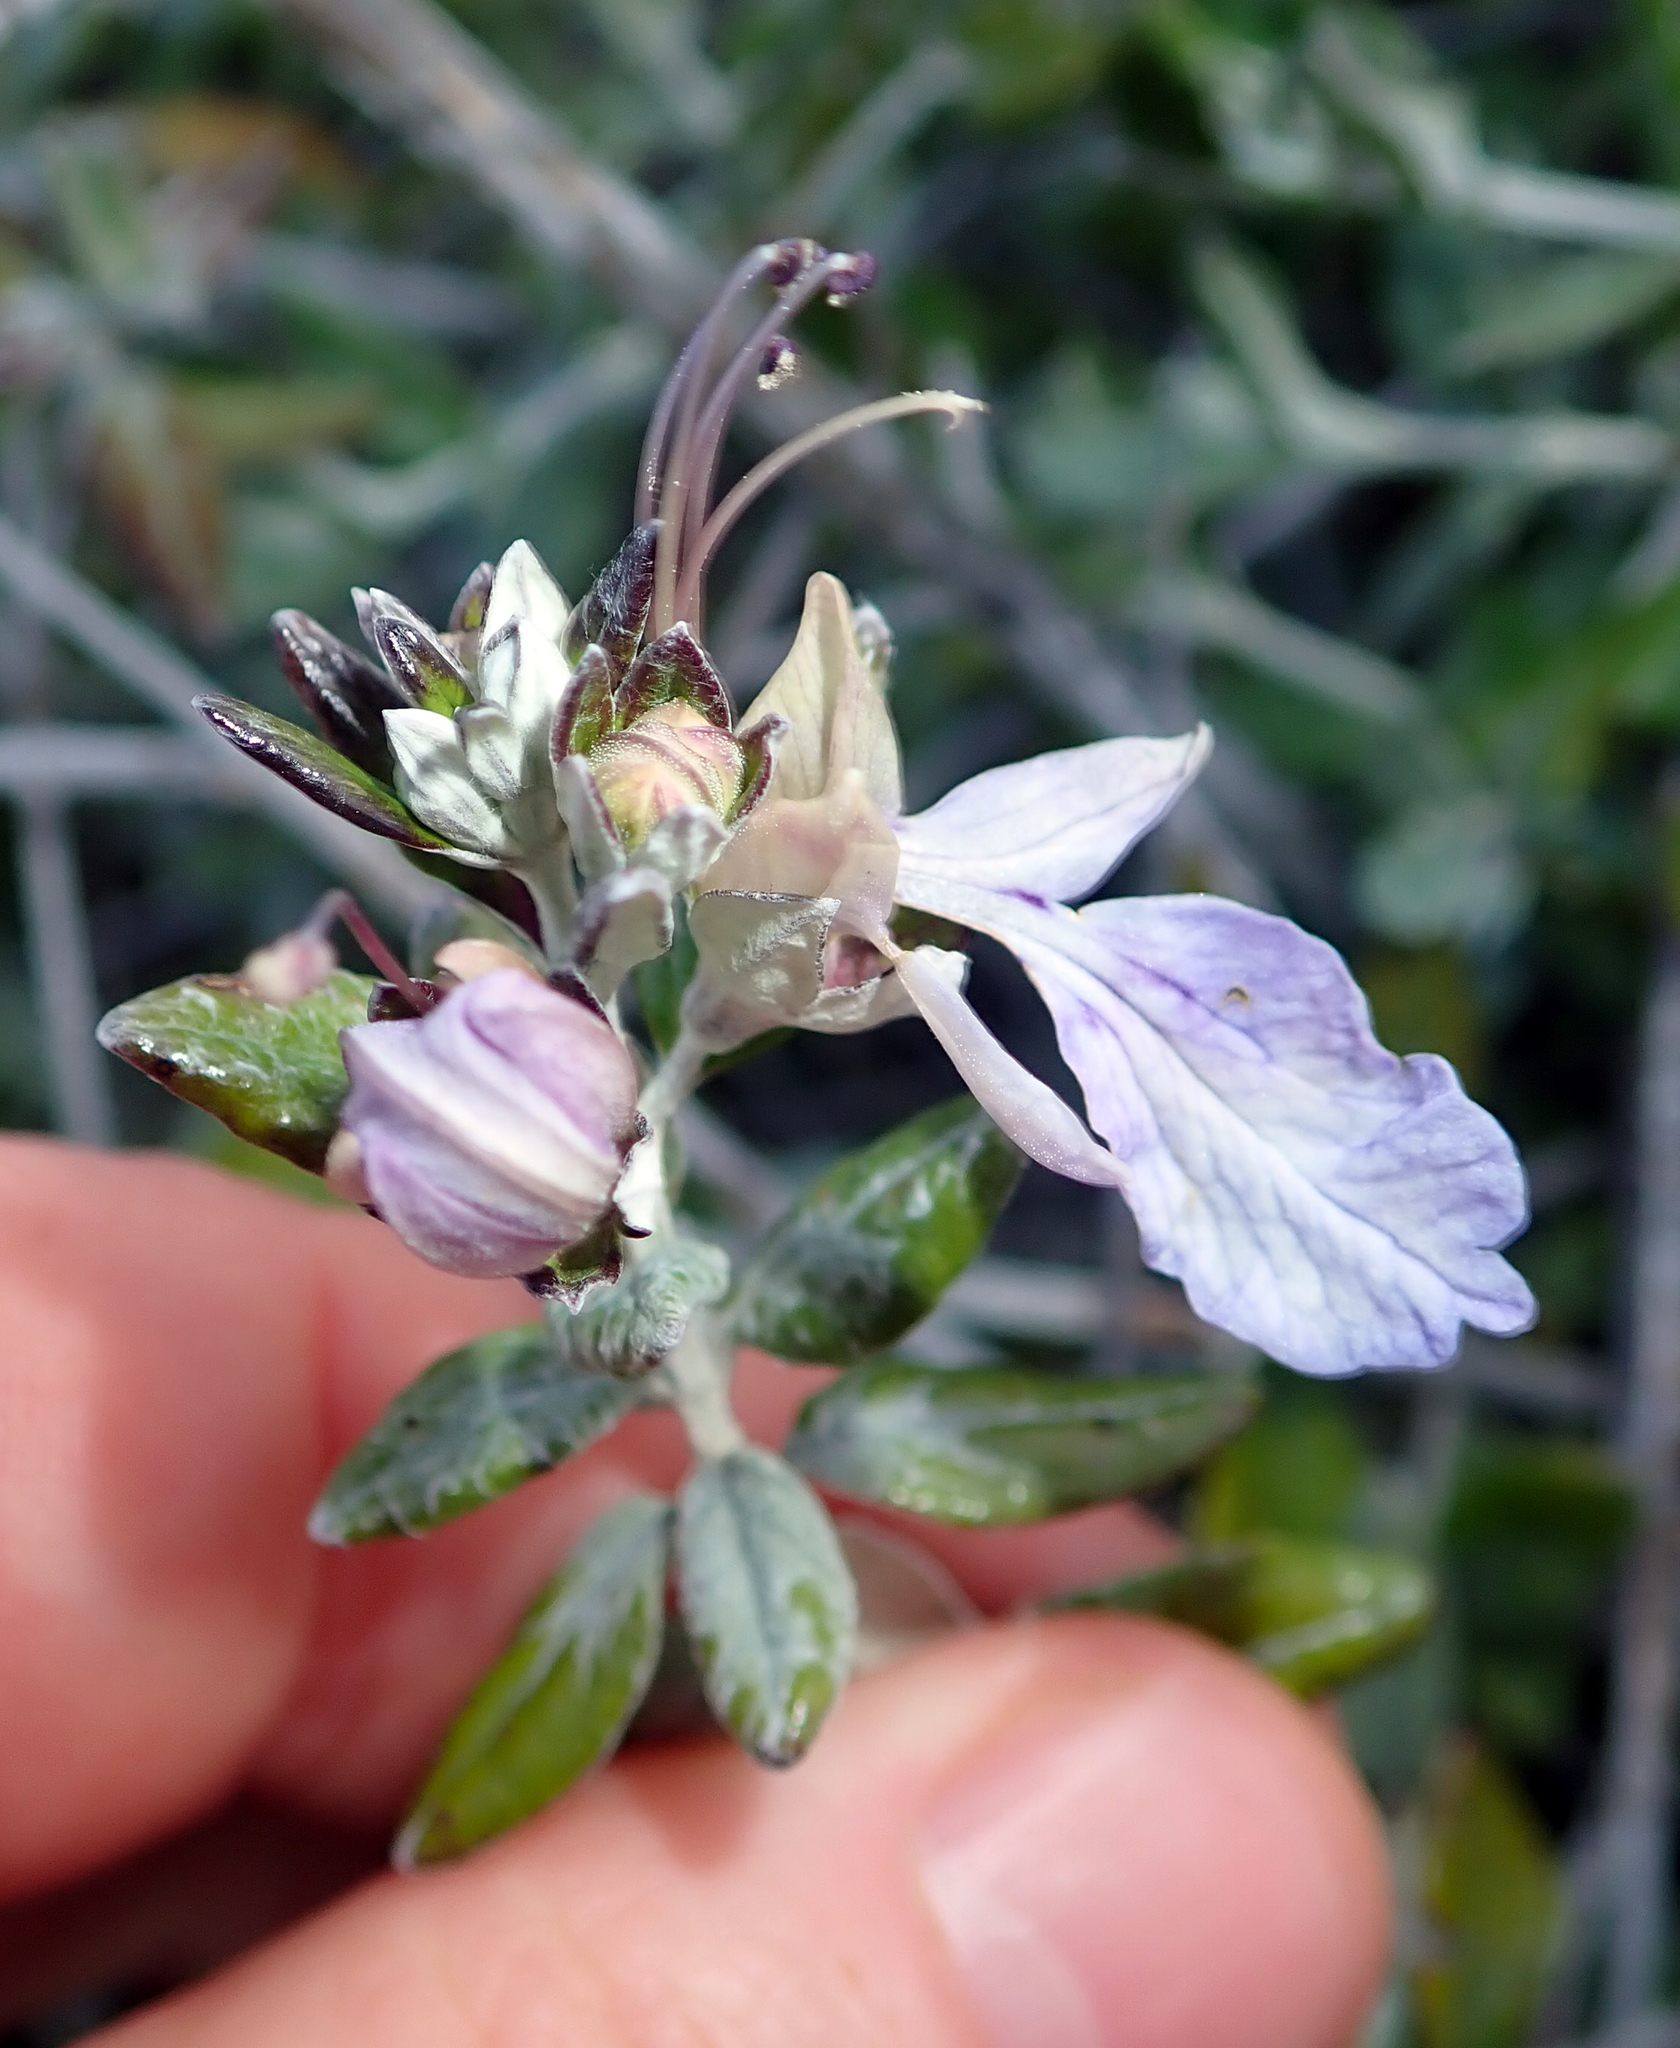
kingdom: Plantae
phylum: Tracheophyta
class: Magnoliopsida
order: Lamiales
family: Lamiaceae
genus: Teucrium
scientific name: Teucrium fruticans
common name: Shrubby germander
